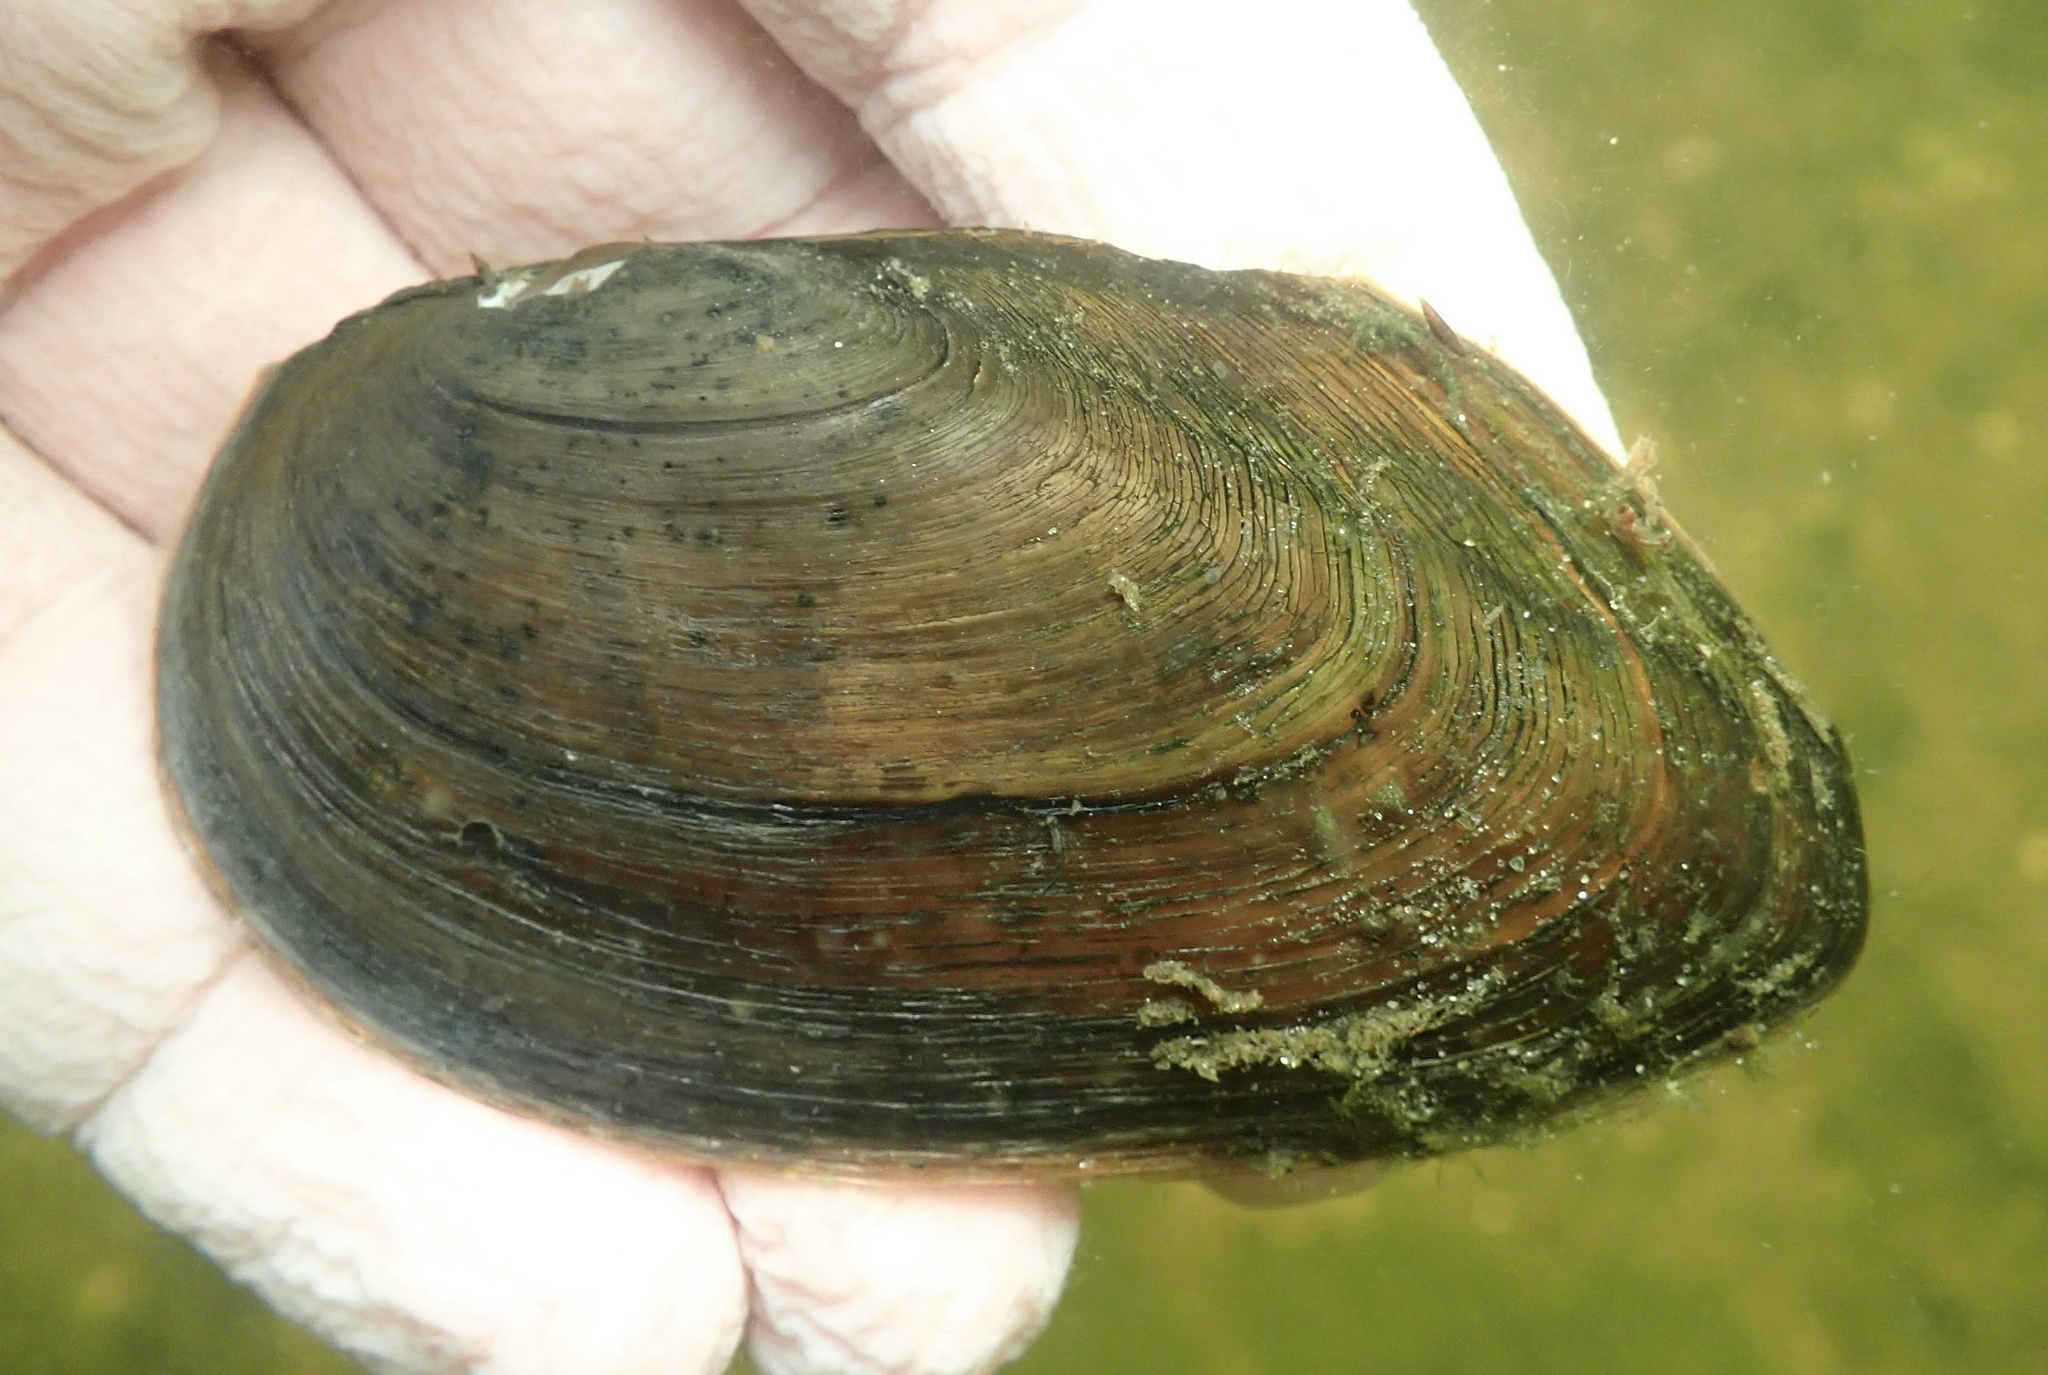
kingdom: Animalia
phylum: Mollusca
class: Bivalvia
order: Unionida
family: Unionidae
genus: Elliptio
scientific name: Elliptio complanata
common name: Eastern elliptio
